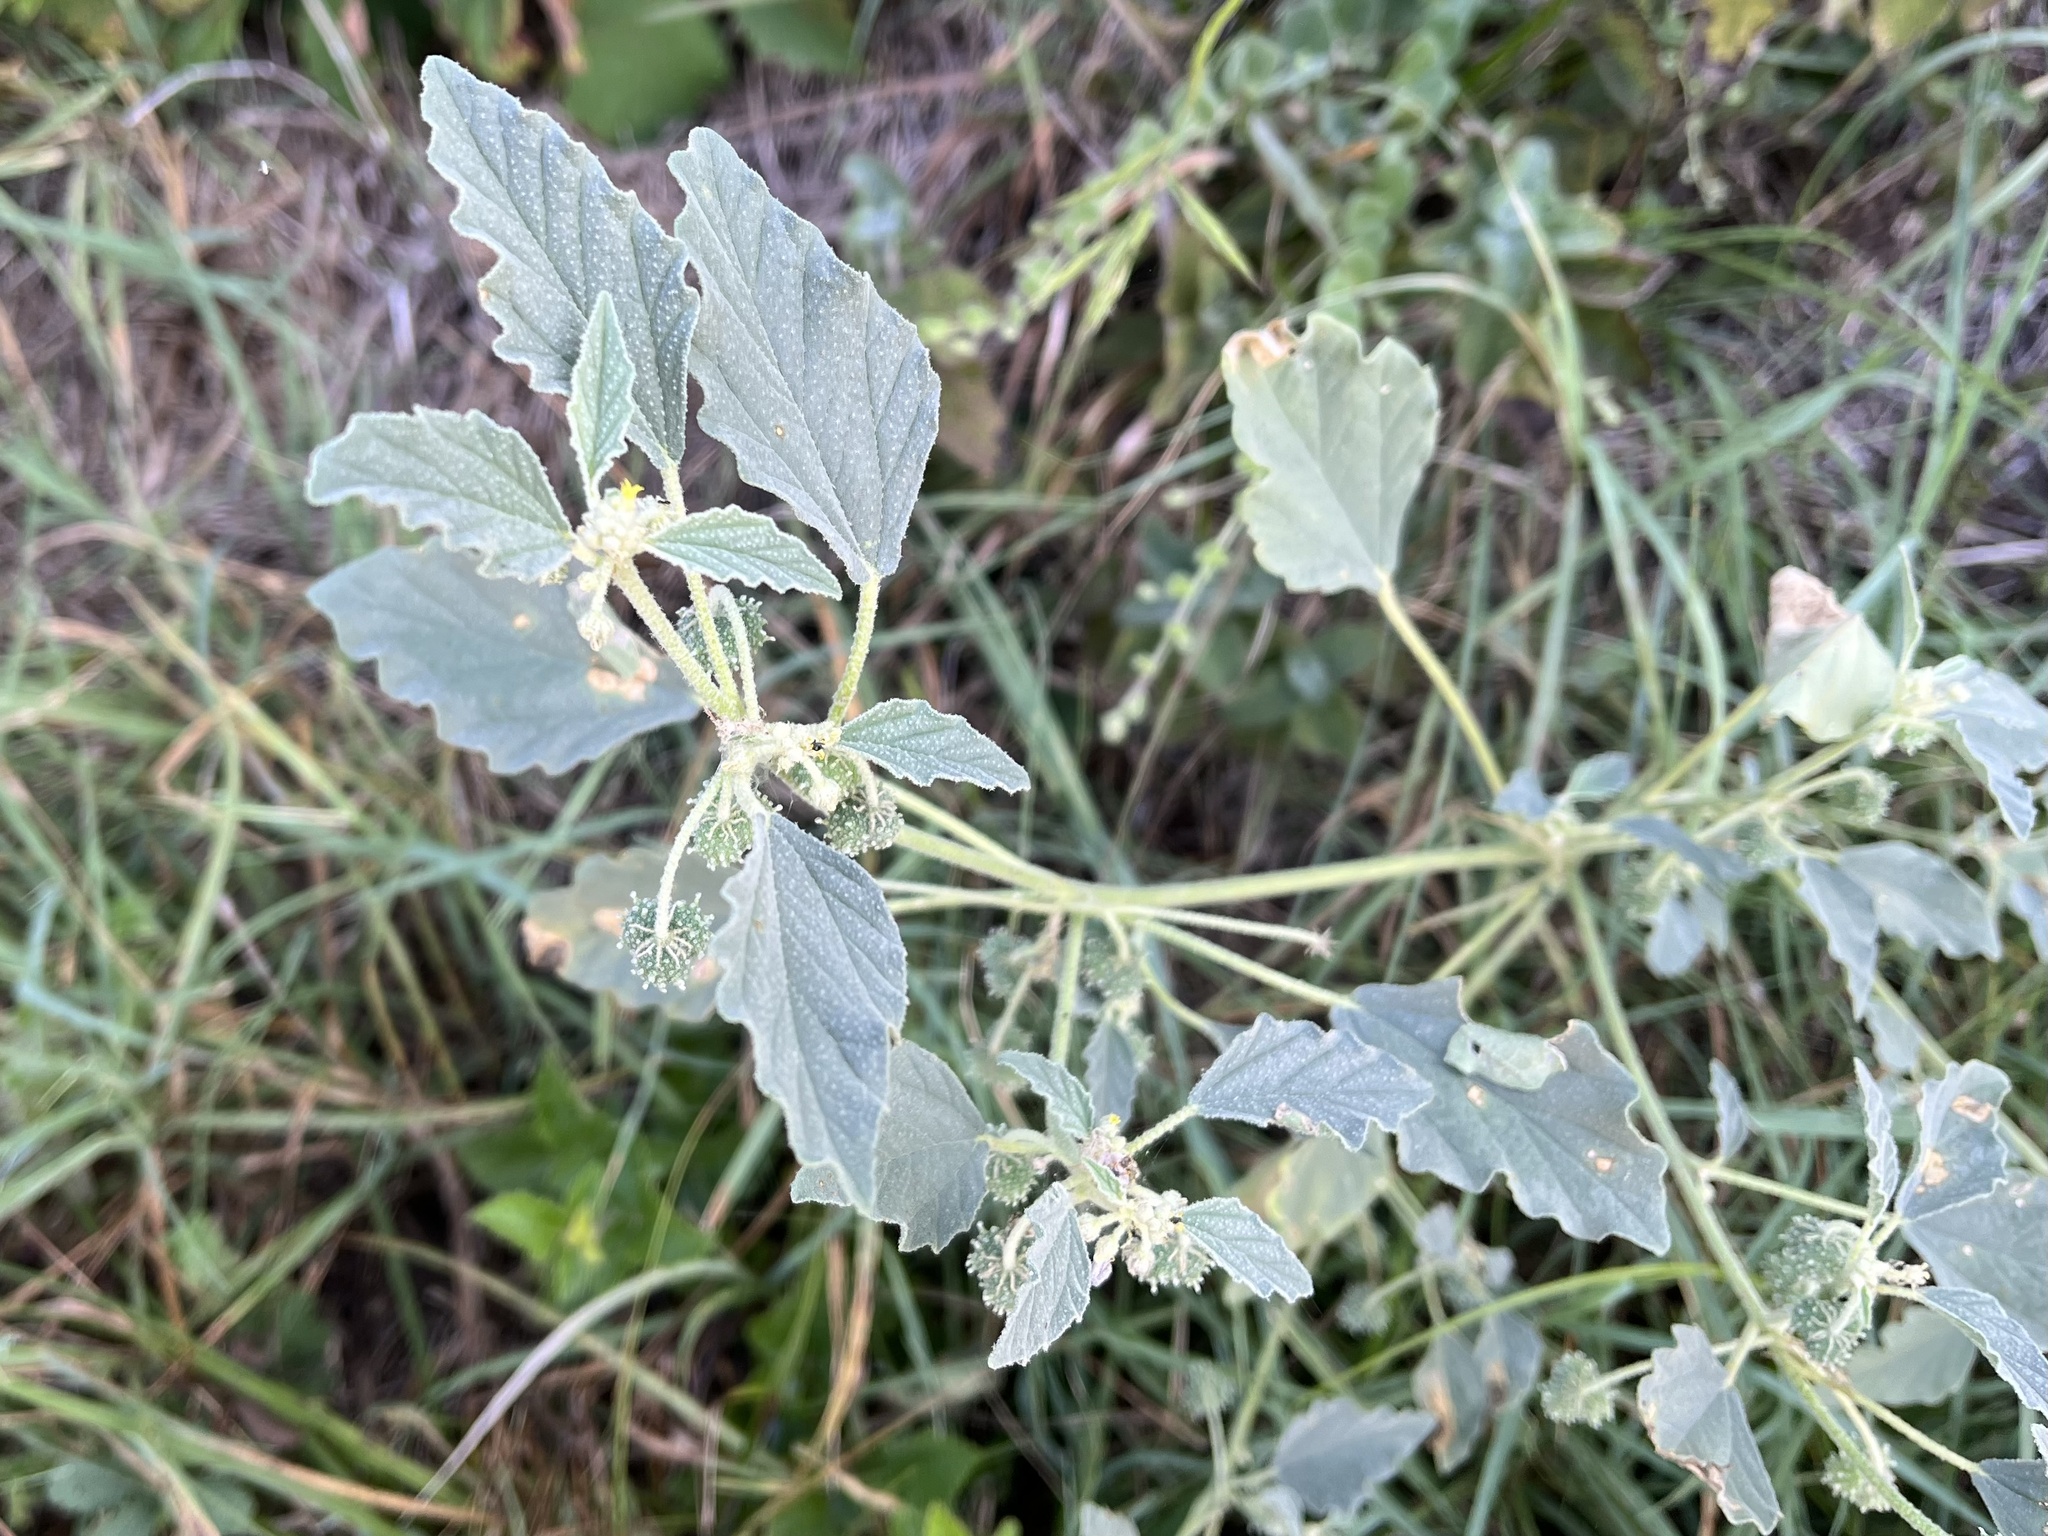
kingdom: Plantae
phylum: Tracheophyta
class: Magnoliopsida
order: Malpighiales
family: Euphorbiaceae
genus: Chrozophora
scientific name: Chrozophora tinctoria
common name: Dyer's litmus
